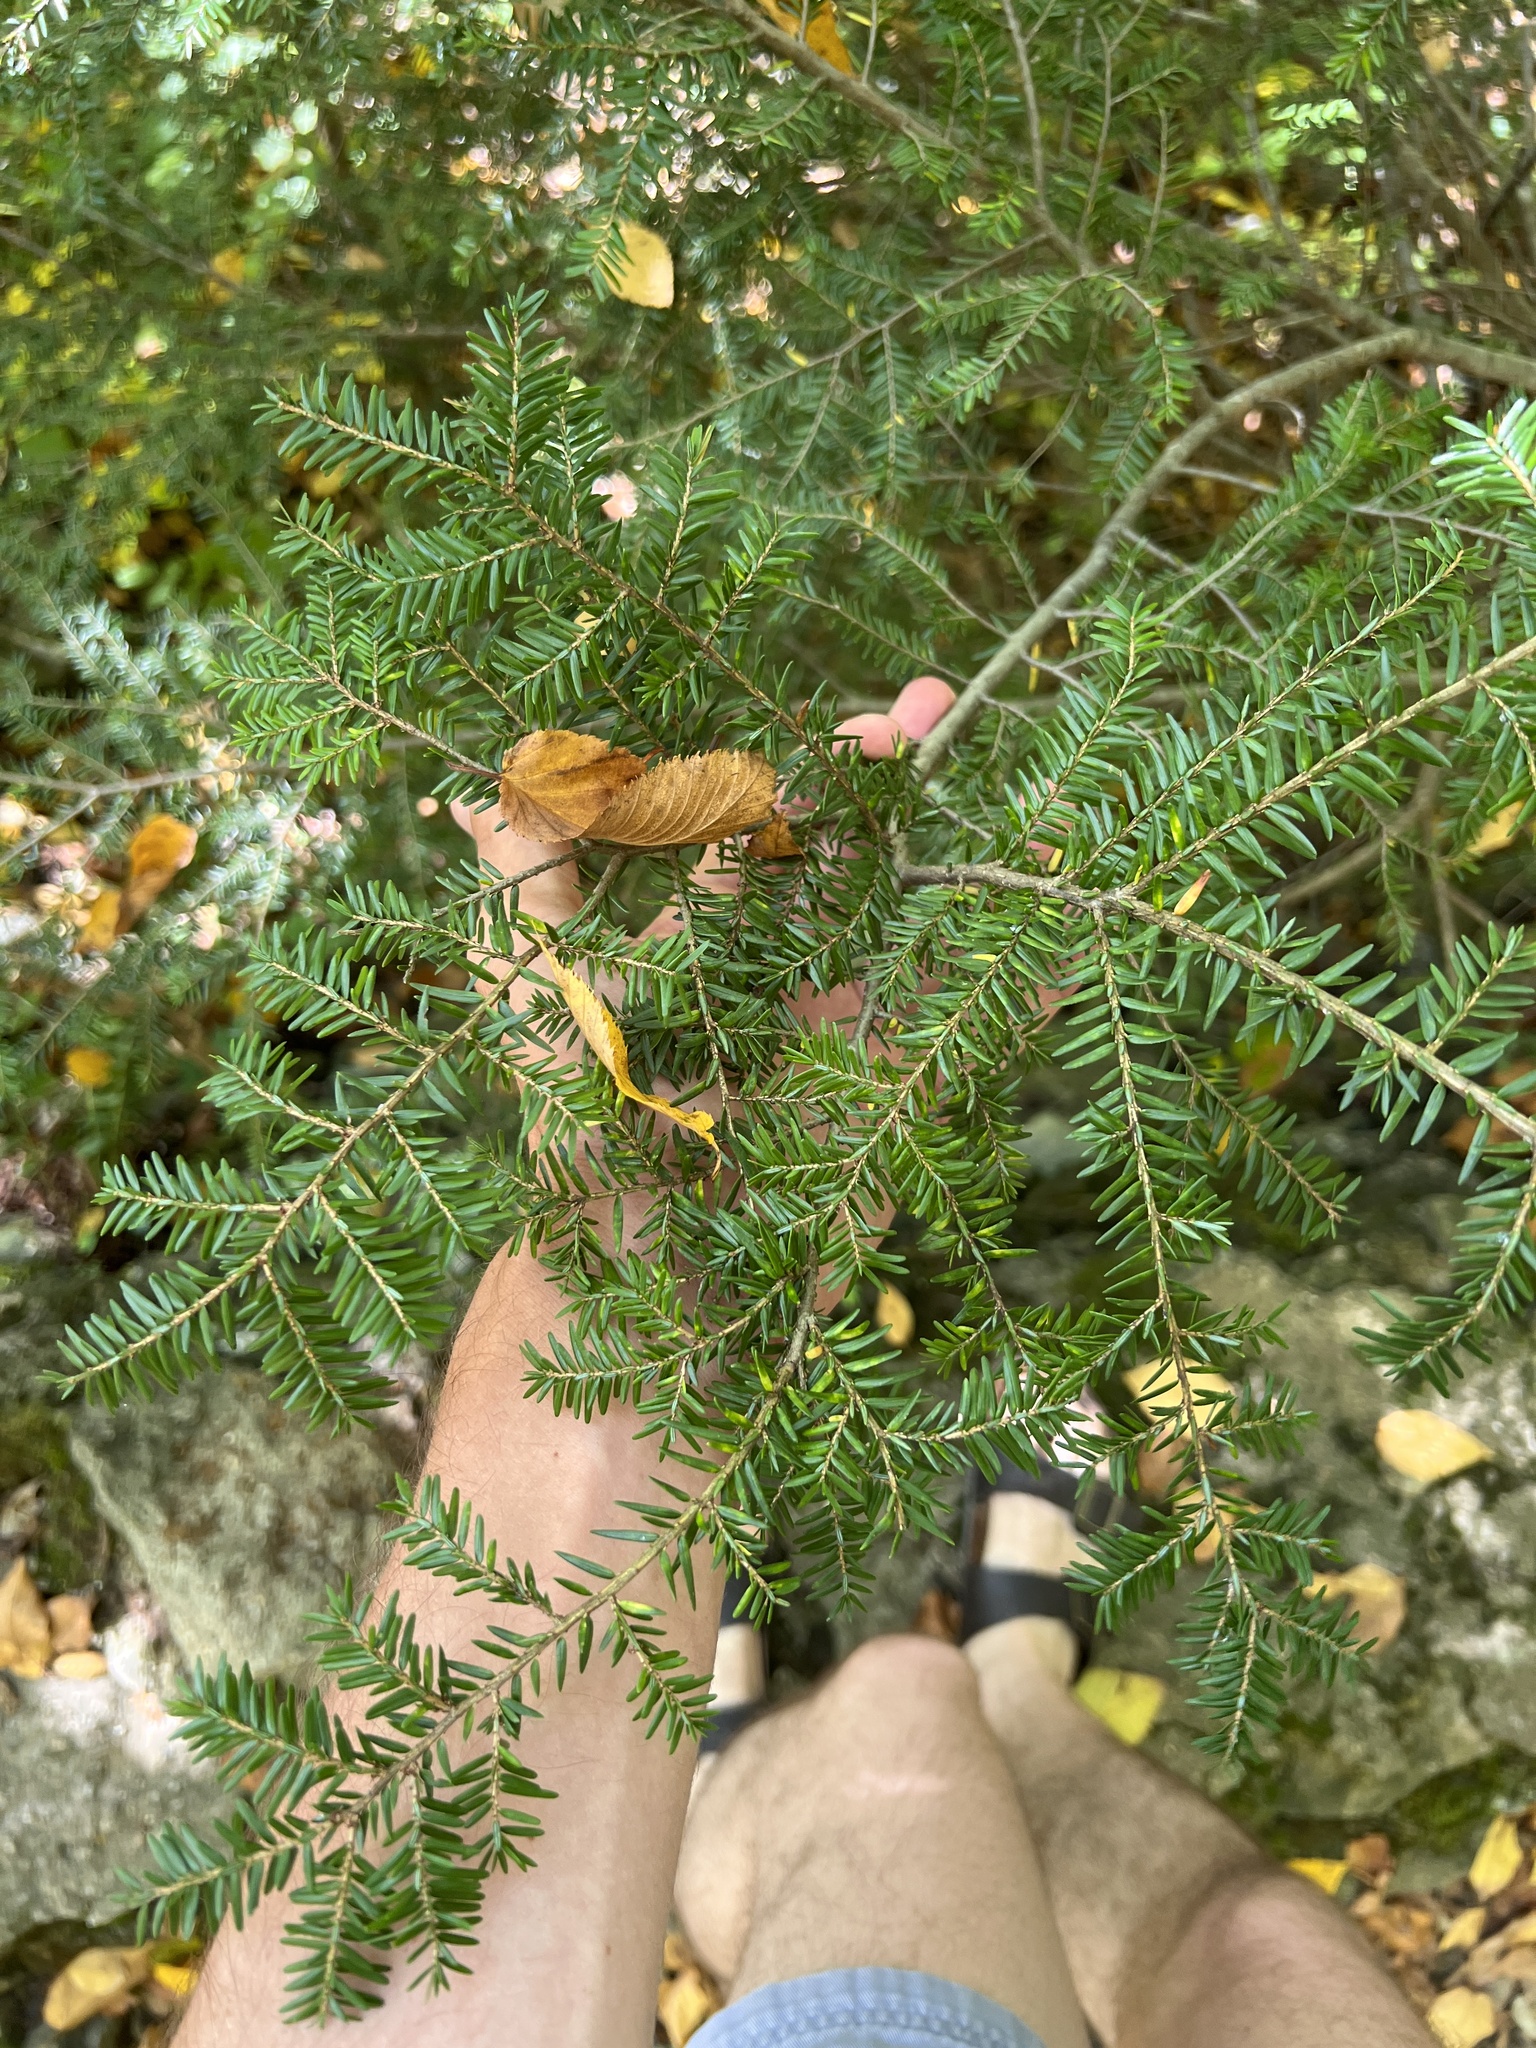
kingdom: Plantae
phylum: Tracheophyta
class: Pinopsida
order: Pinales
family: Pinaceae
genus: Tsuga
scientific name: Tsuga canadensis
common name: Eastern hemlock
